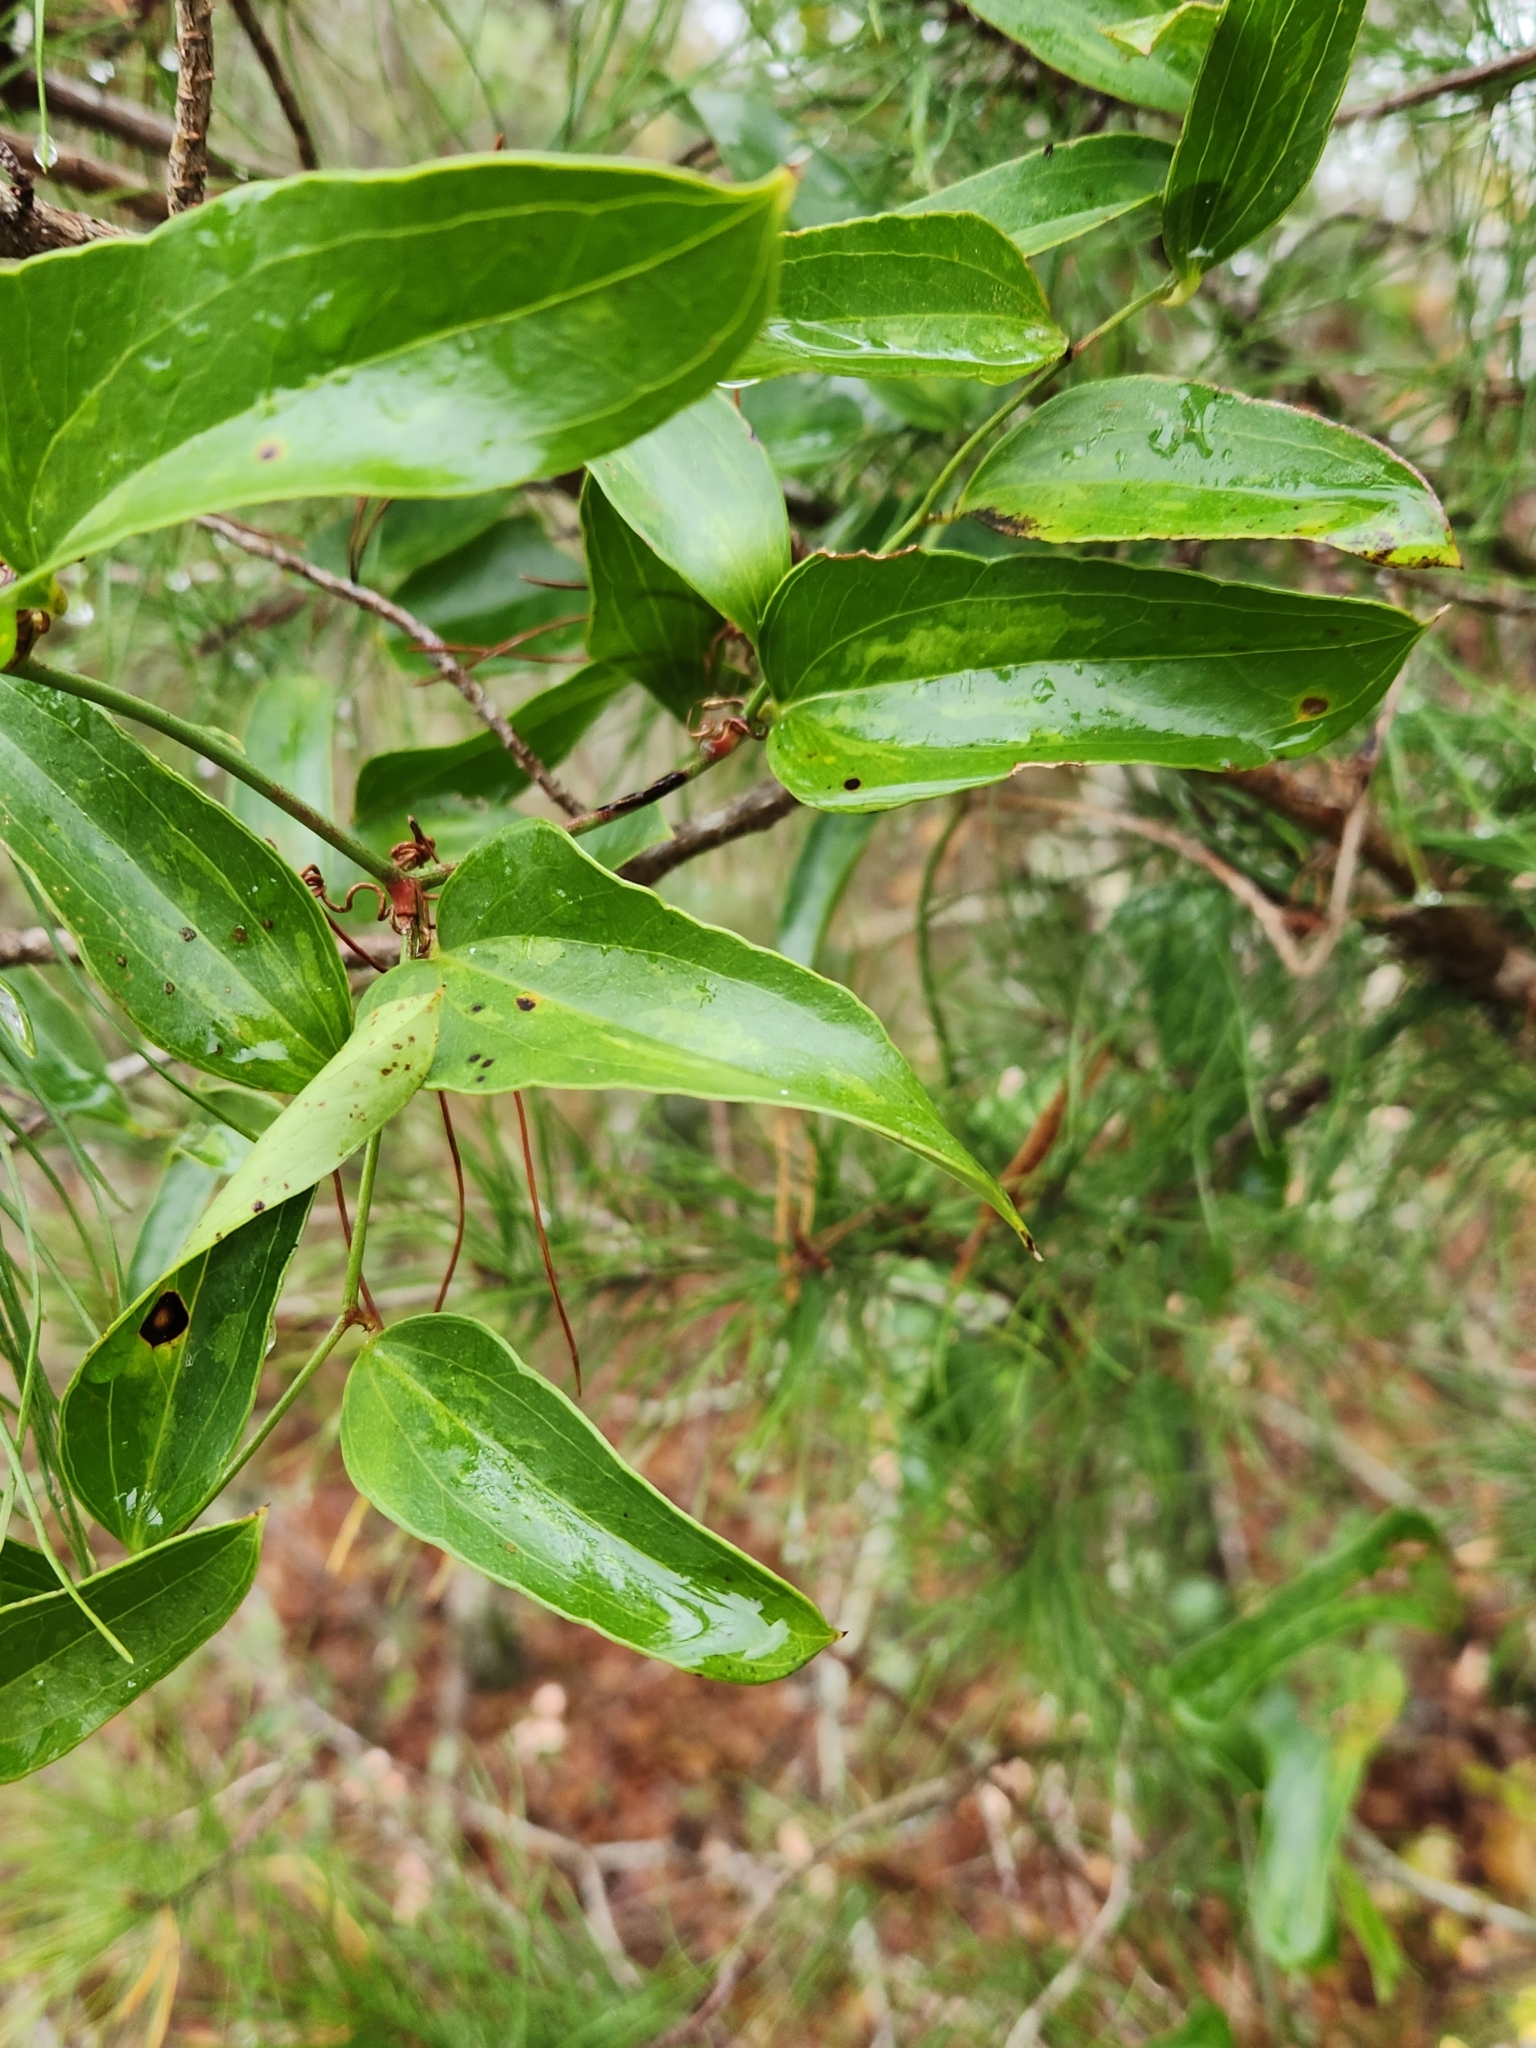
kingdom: Plantae
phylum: Tracheophyta
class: Liliopsida
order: Liliales
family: Smilacaceae
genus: Smilax
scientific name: Smilax auriculata
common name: Wild bamboo
